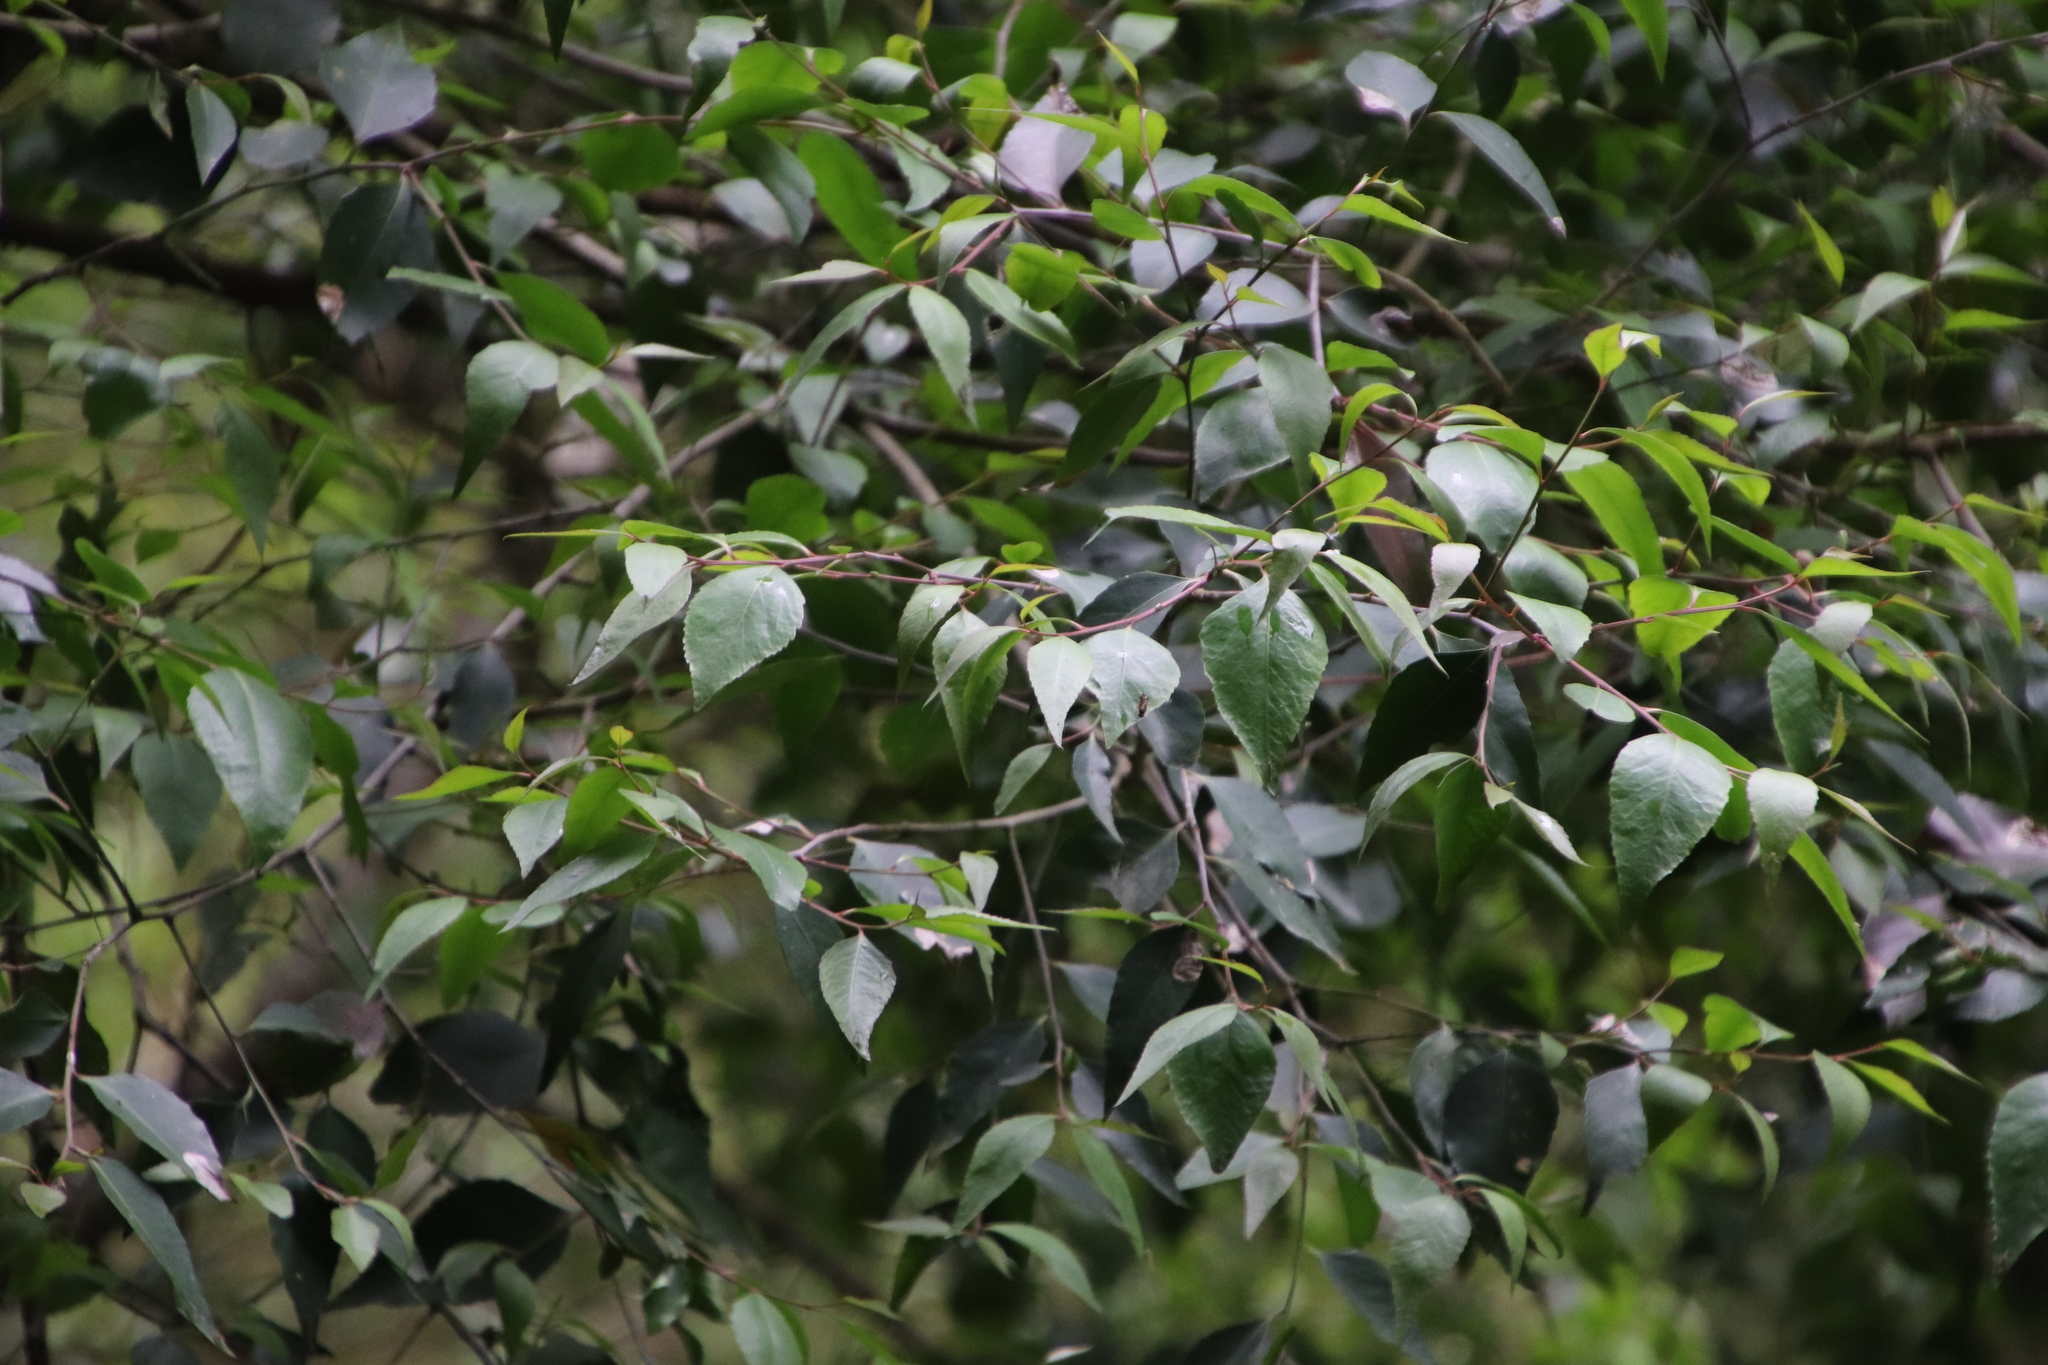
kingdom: Plantae
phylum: Tracheophyta
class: Magnoliopsida
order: Celastrales
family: Celastraceae
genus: Gymnosporia
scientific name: Gymnosporia acuminata
